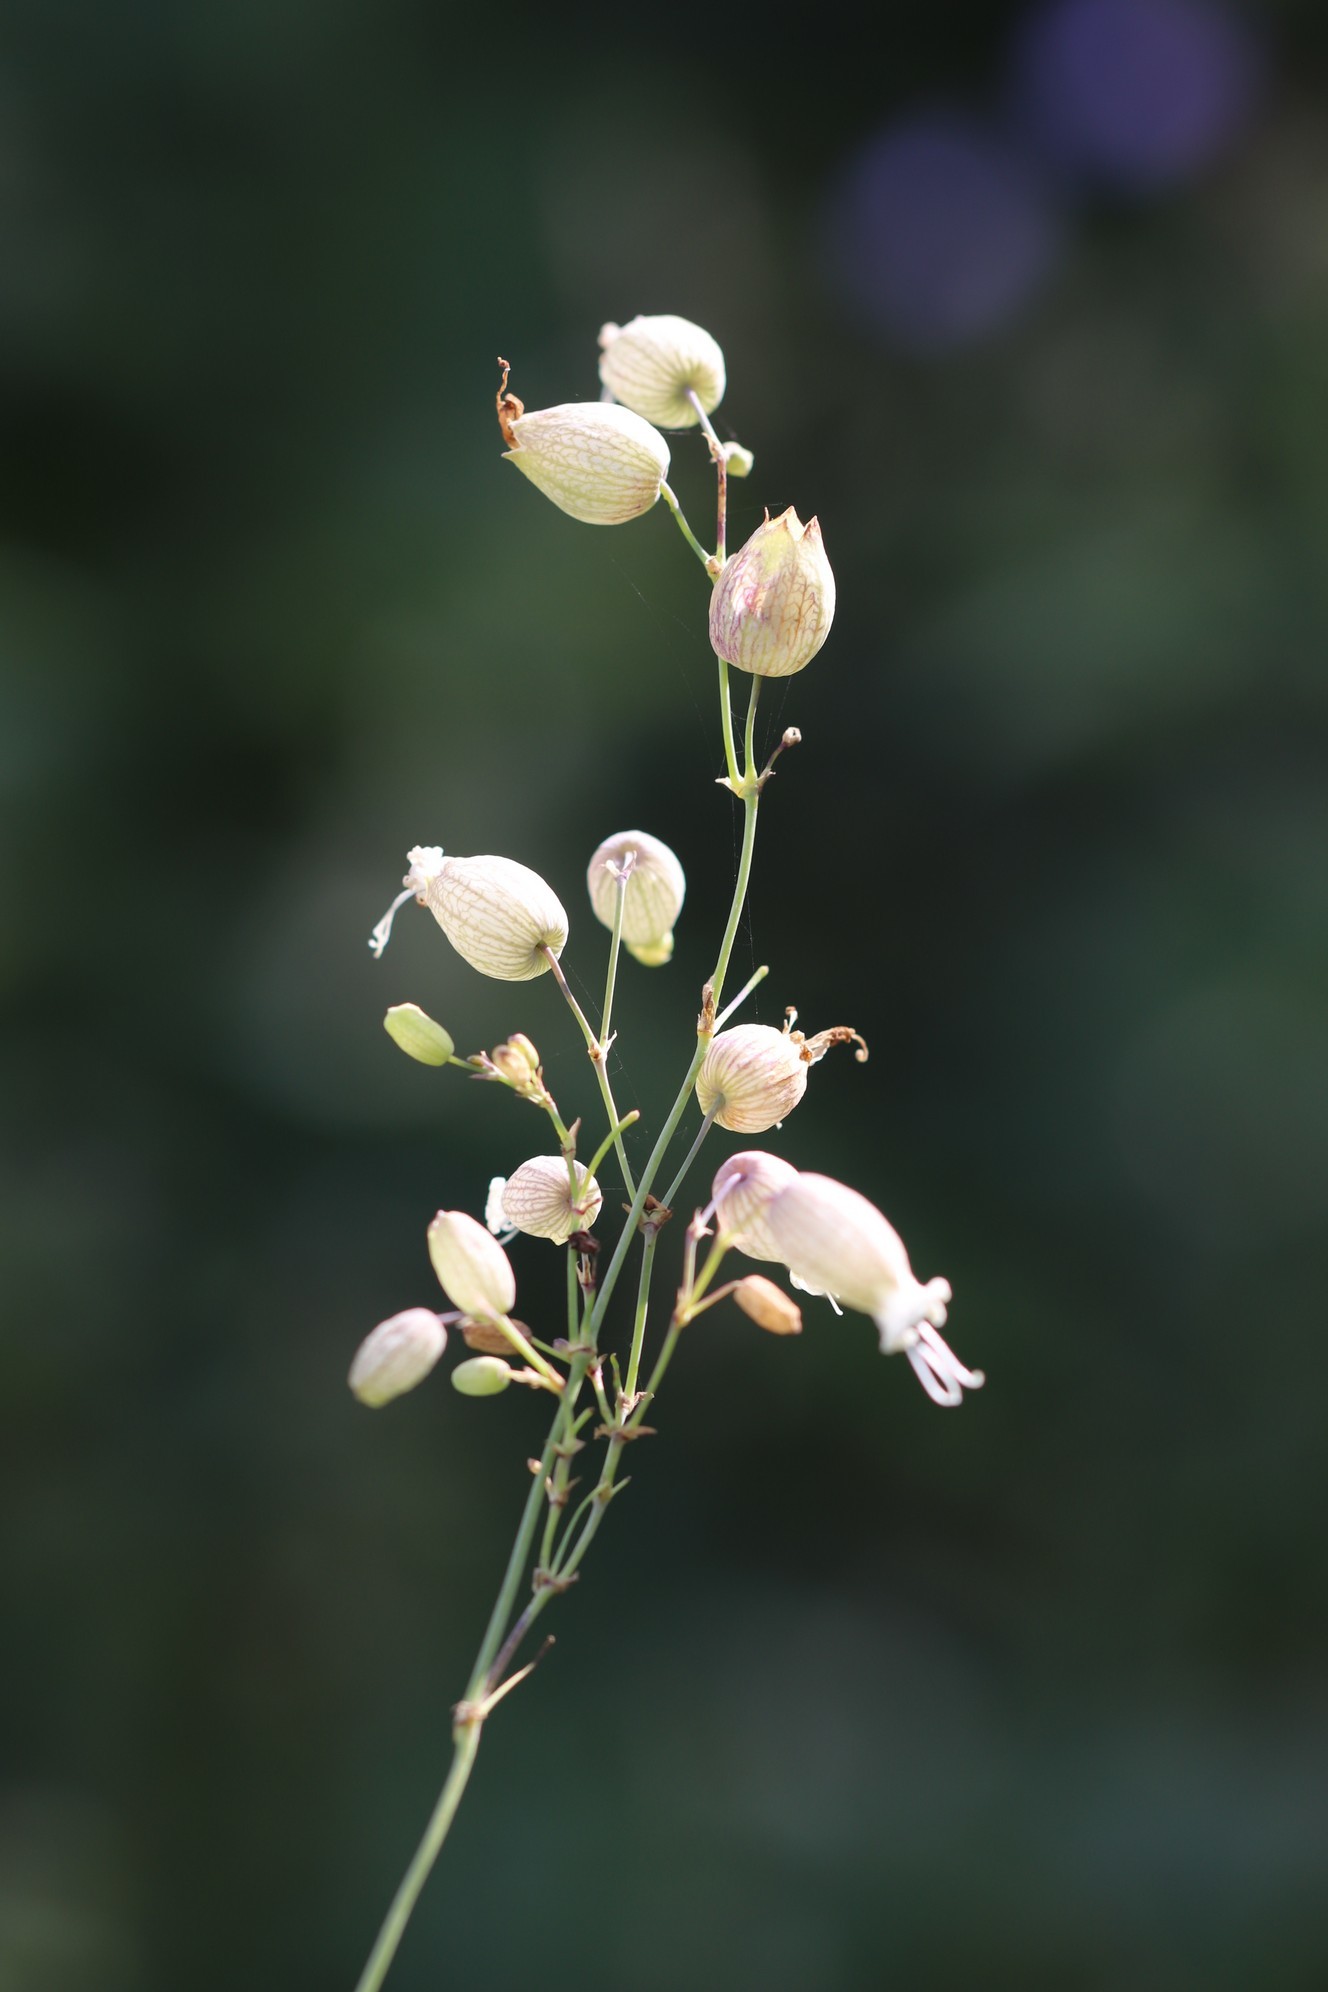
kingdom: Plantae
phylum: Tracheophyta
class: Magnoliopsida
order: Caryophyllales
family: Caryophyllaceae
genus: Silene
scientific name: Silene vulgaris
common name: Bladder campion
